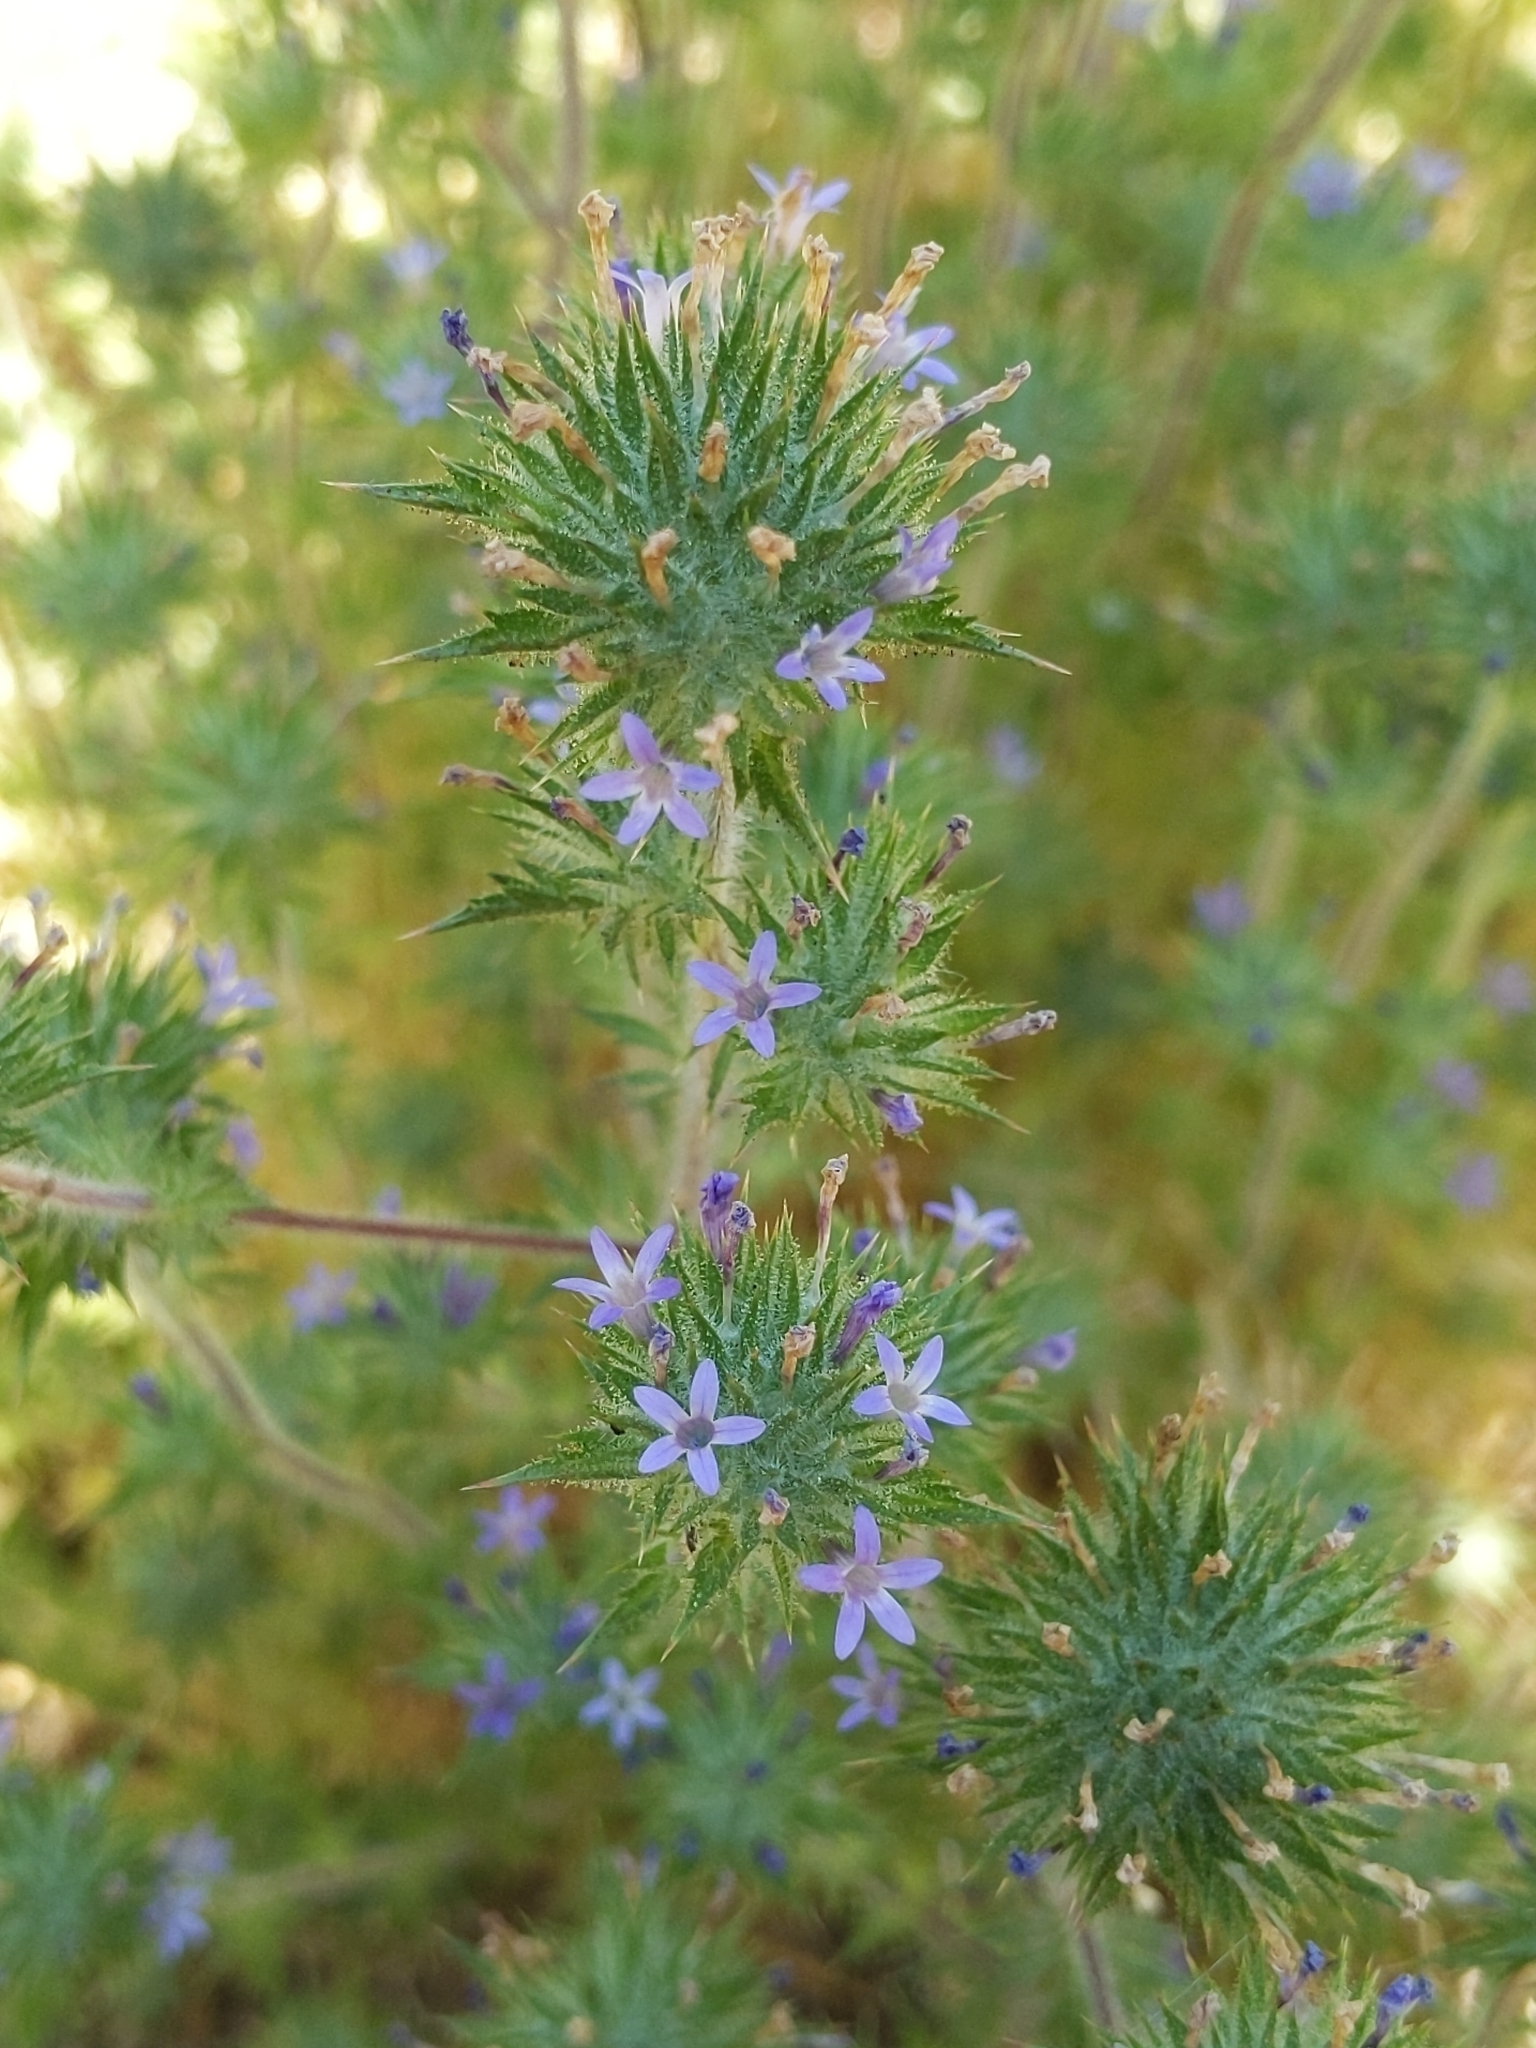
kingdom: Plantae
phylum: Tracheophyta
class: Magnoliopsida
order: Ericales
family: Polemoniaceae
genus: Navarretia
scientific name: Navarretia squarrosa
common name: Skunkweed
